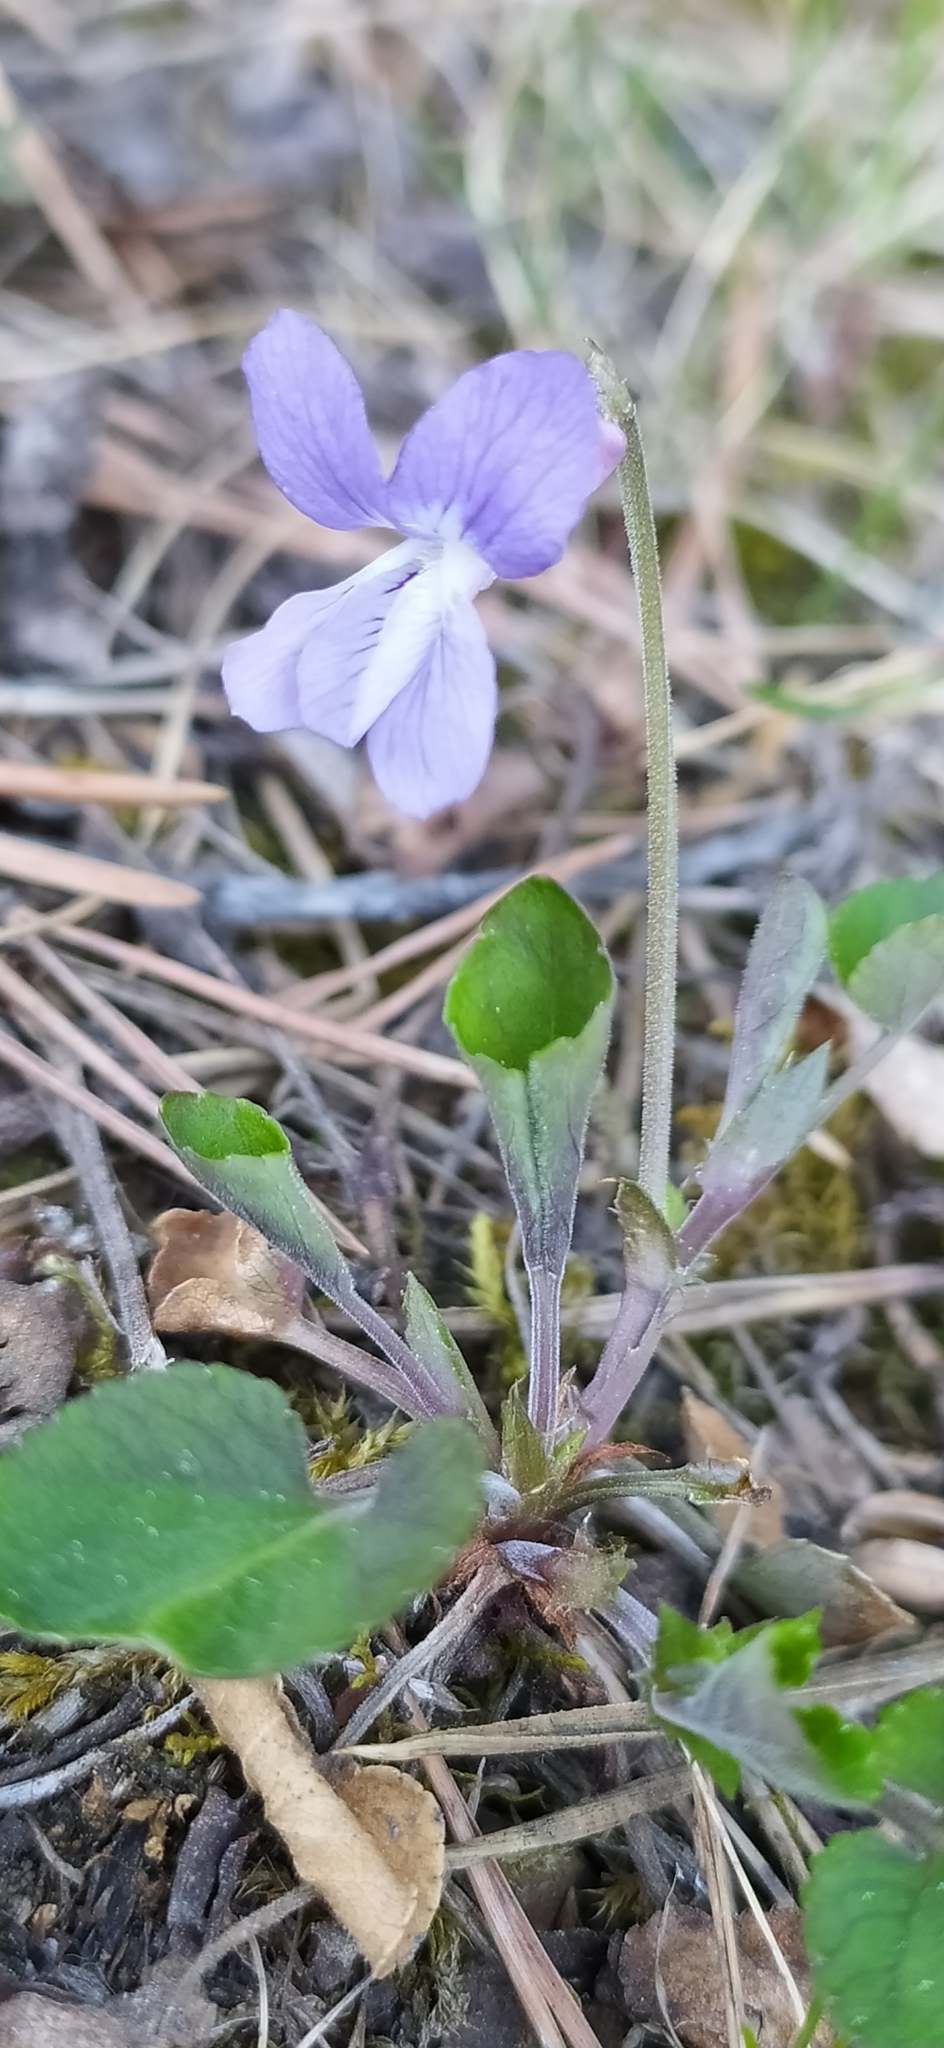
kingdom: Plantae
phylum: Tracheophyta
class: Magnoliopsida
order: Malpighiales
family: Violaceae
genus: Viola
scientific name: Viola rupestris
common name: Teesdale violet
